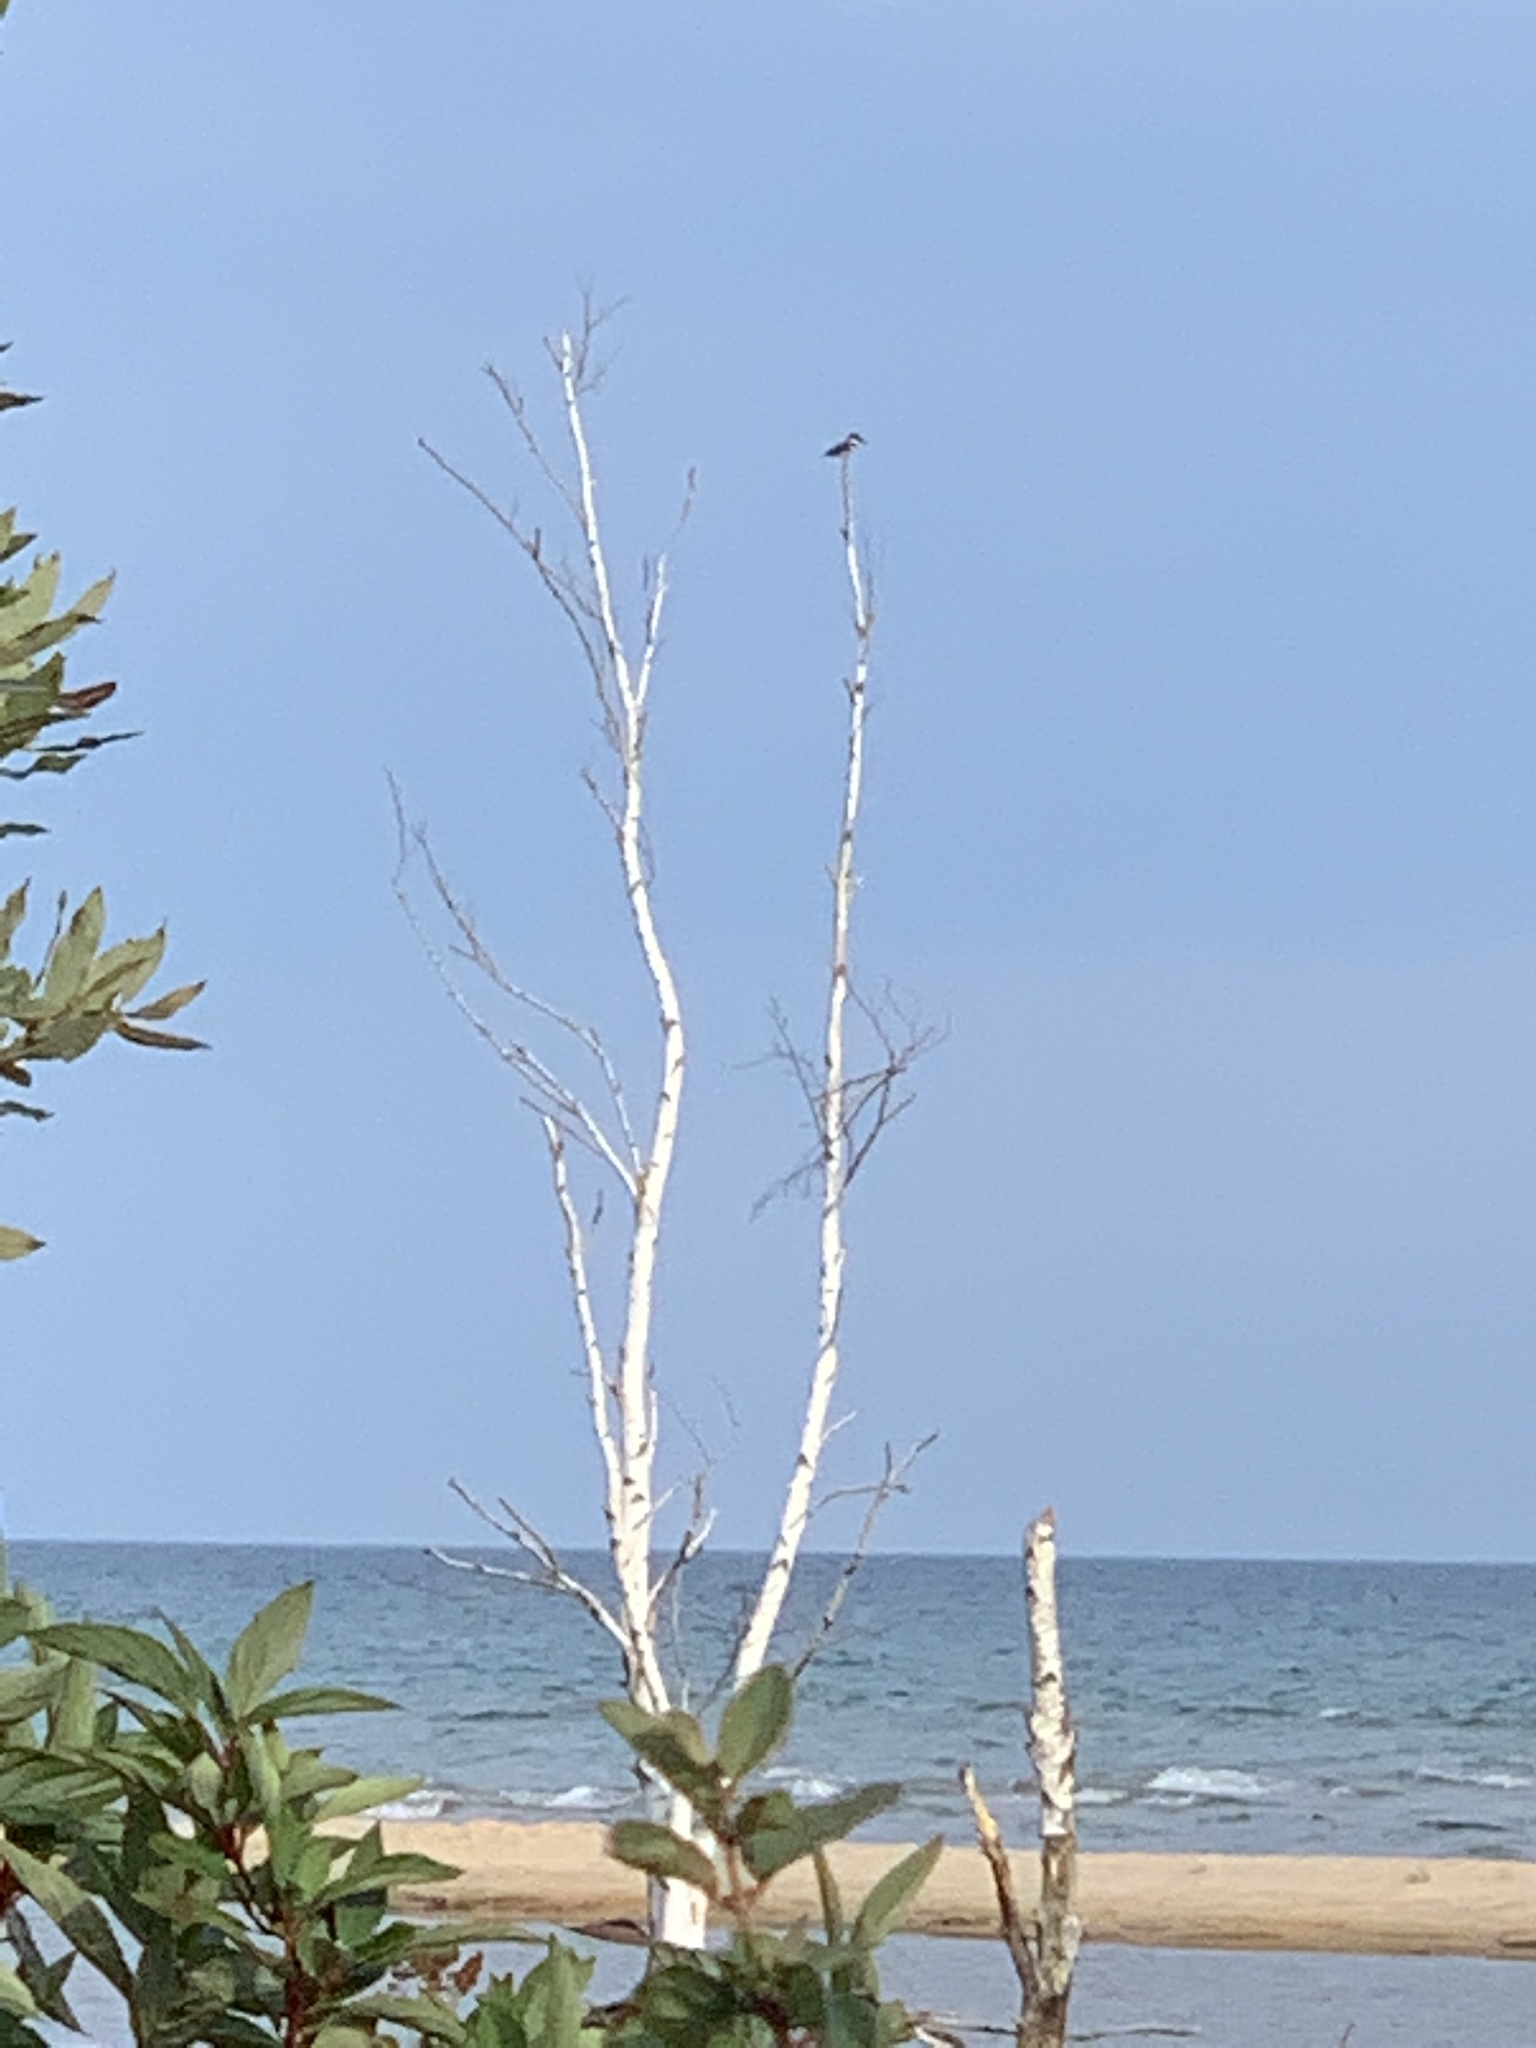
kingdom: Animalia
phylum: Chordata
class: Aves
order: Coraciiformes
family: Alcedinidae
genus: Megaceryle
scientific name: Megaceryle alcyon
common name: Belted kingfisher
